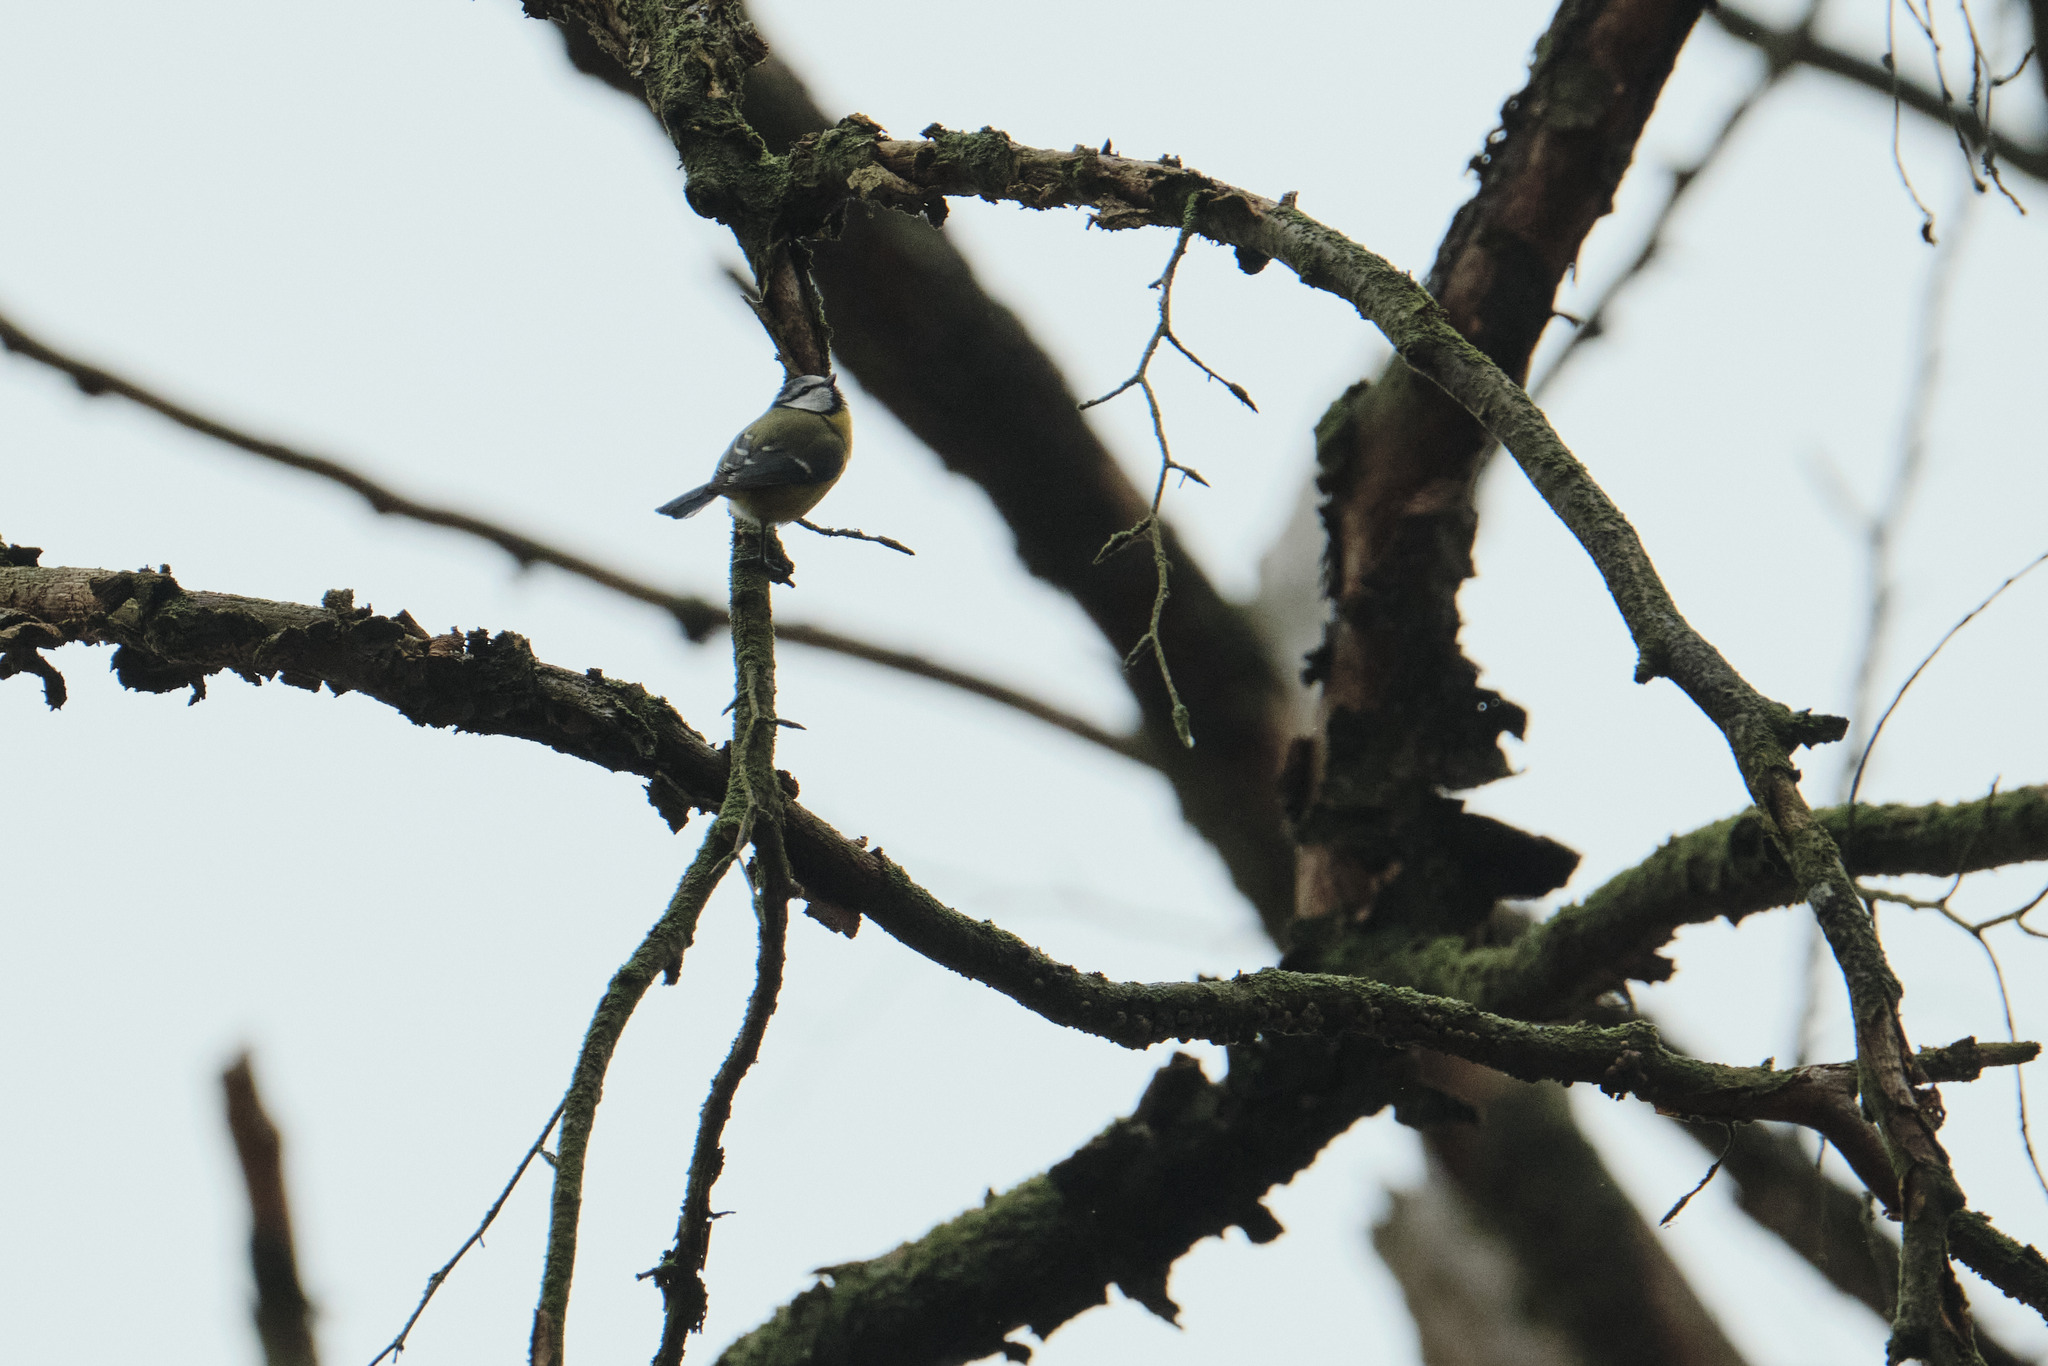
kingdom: Animalia
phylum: Chordata
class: Aves
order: Passeriformes
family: Paridae
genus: Cyanistes
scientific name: Cyanistes caeruleus
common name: Eurasian blue tit
